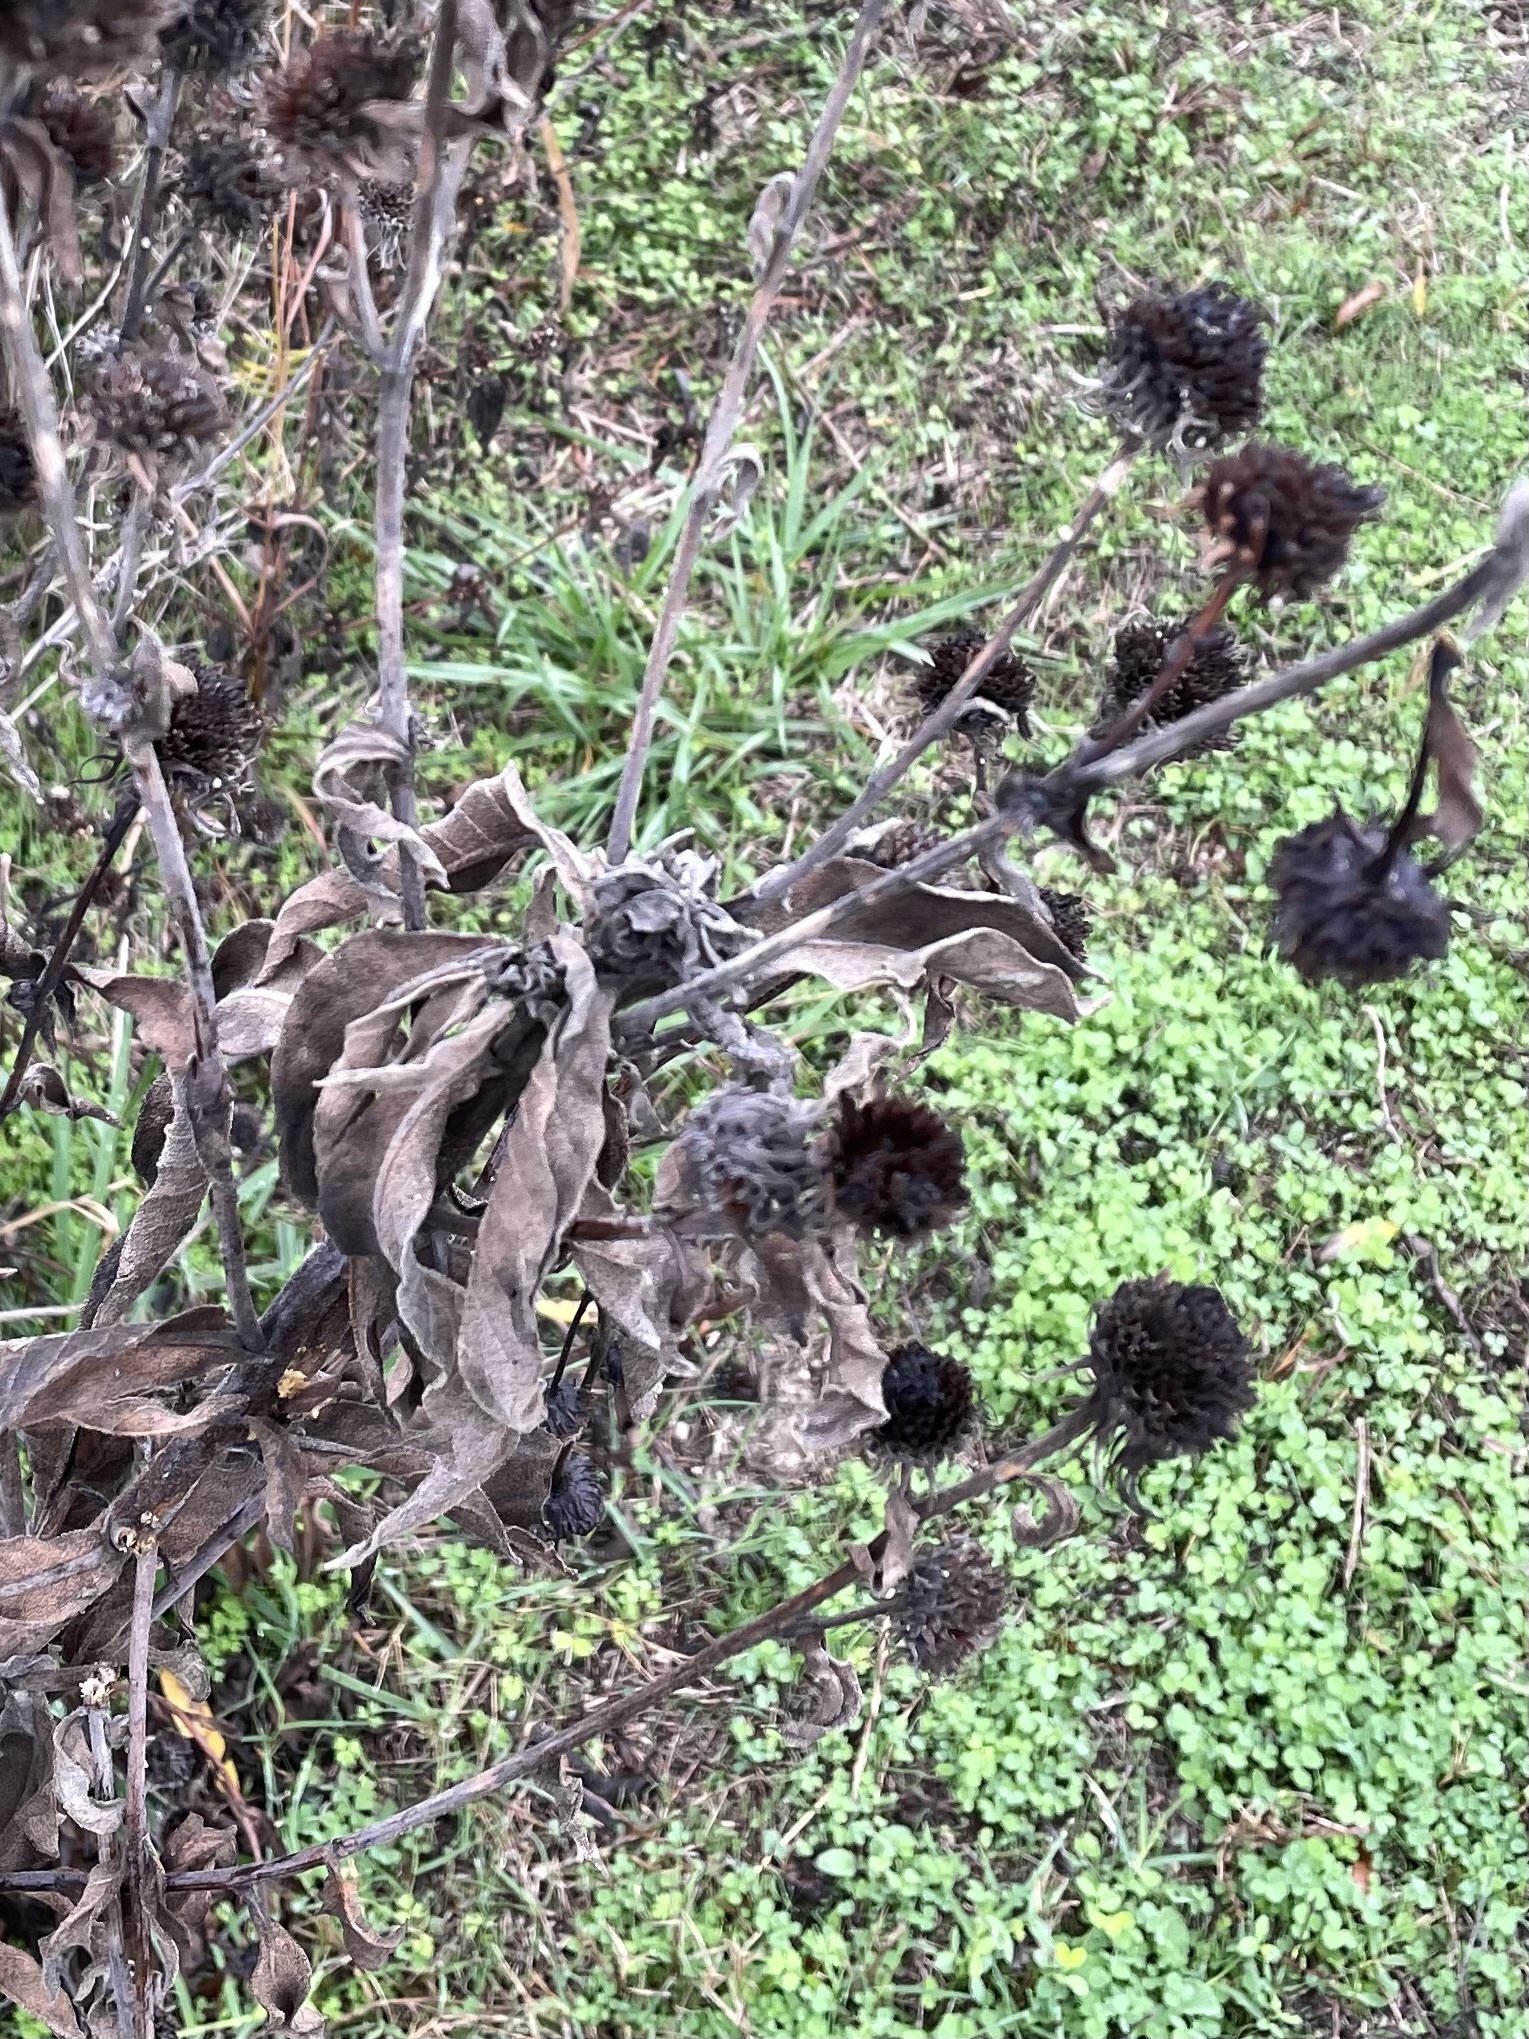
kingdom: Plantae
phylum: Tracheophyta
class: Magnoliopsida
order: Asterales
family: Asteraceae
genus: Helianthus
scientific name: Helianthus maximiliani
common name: Maximilian's sunflower
